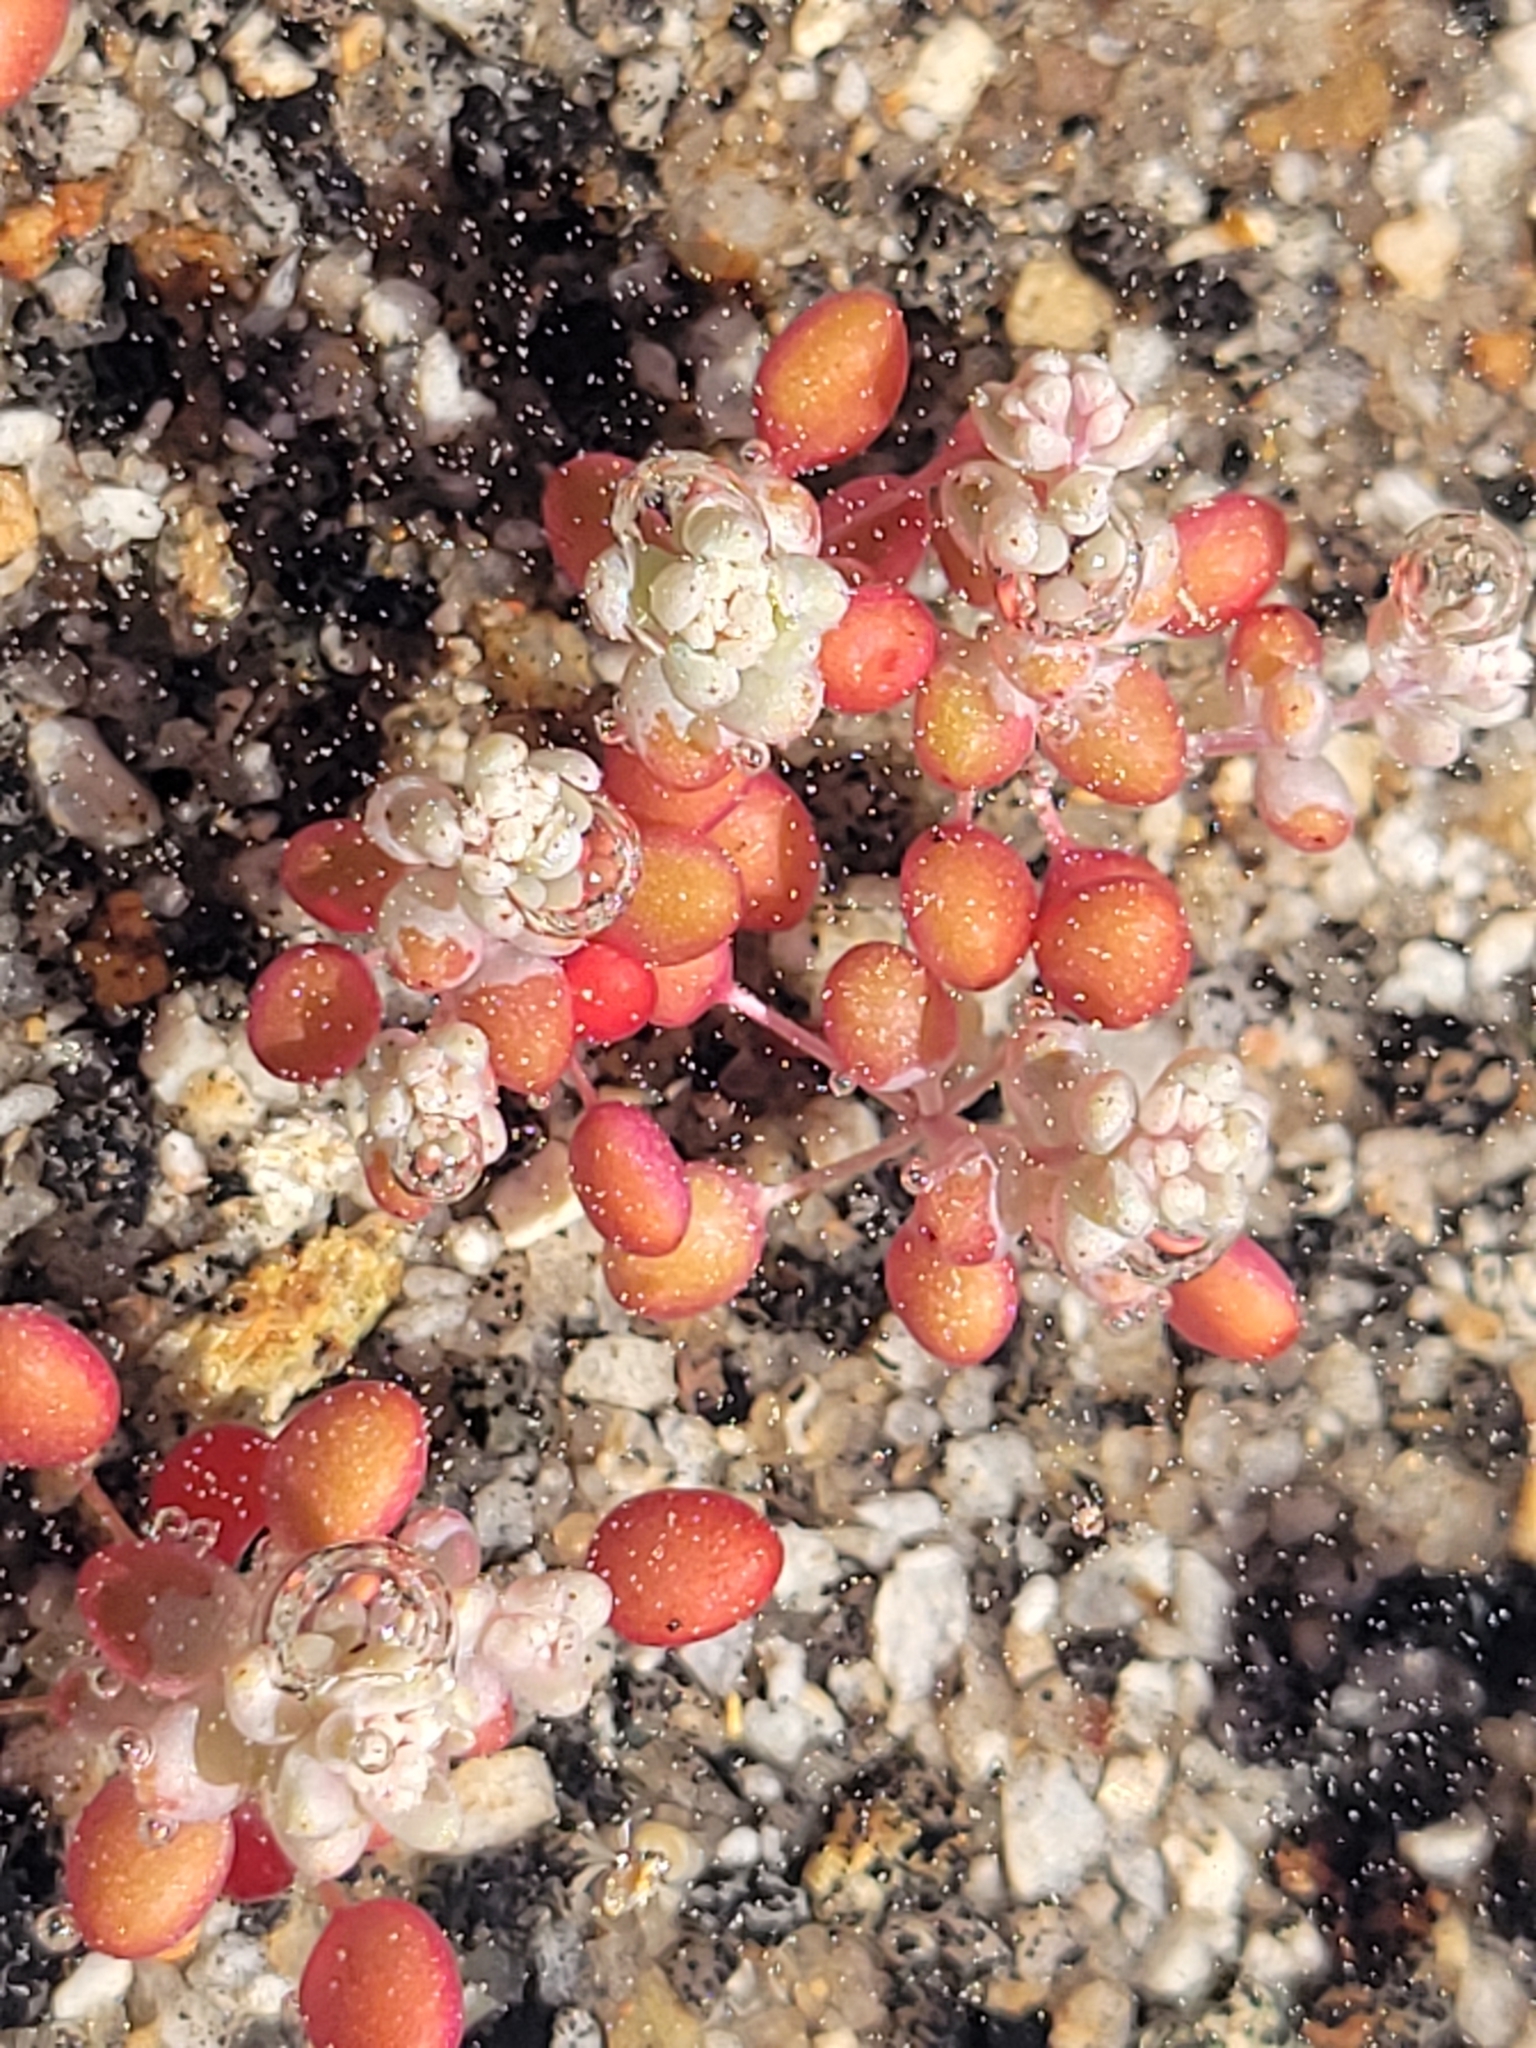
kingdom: Plantae
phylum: Tracheophyta
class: Magnoliopsida
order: Saxifragales
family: Crassulaceae
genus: Sedum
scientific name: Sedum smallii
